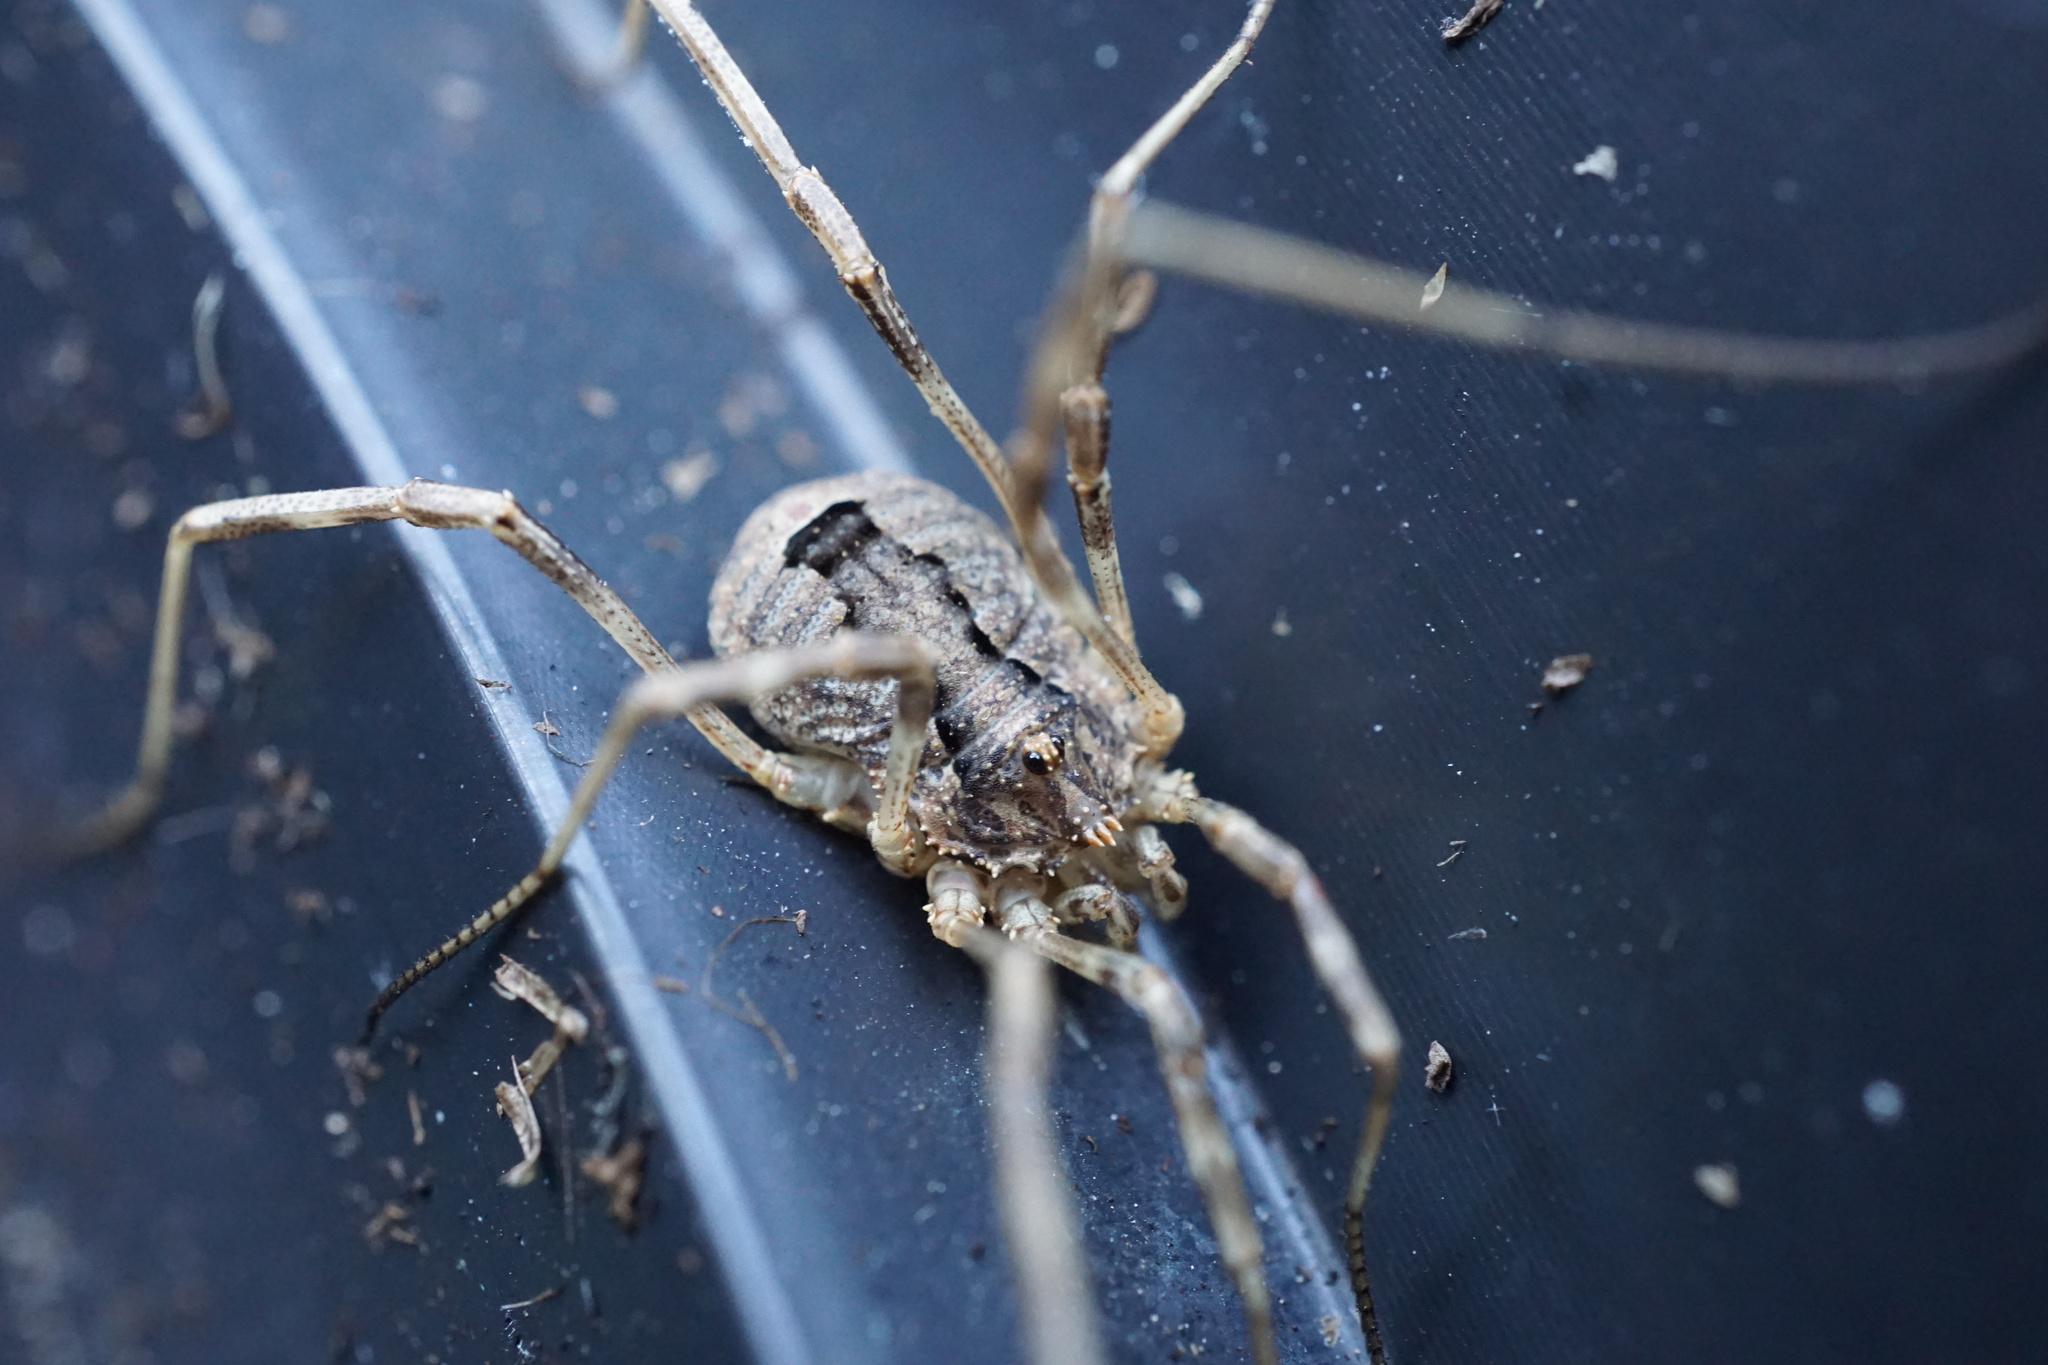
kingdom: Animalia
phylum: Arthropoda
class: Arachnida
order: Opiliones
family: Phalangiidae
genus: Odiellus
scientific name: Odiellus spinosus
